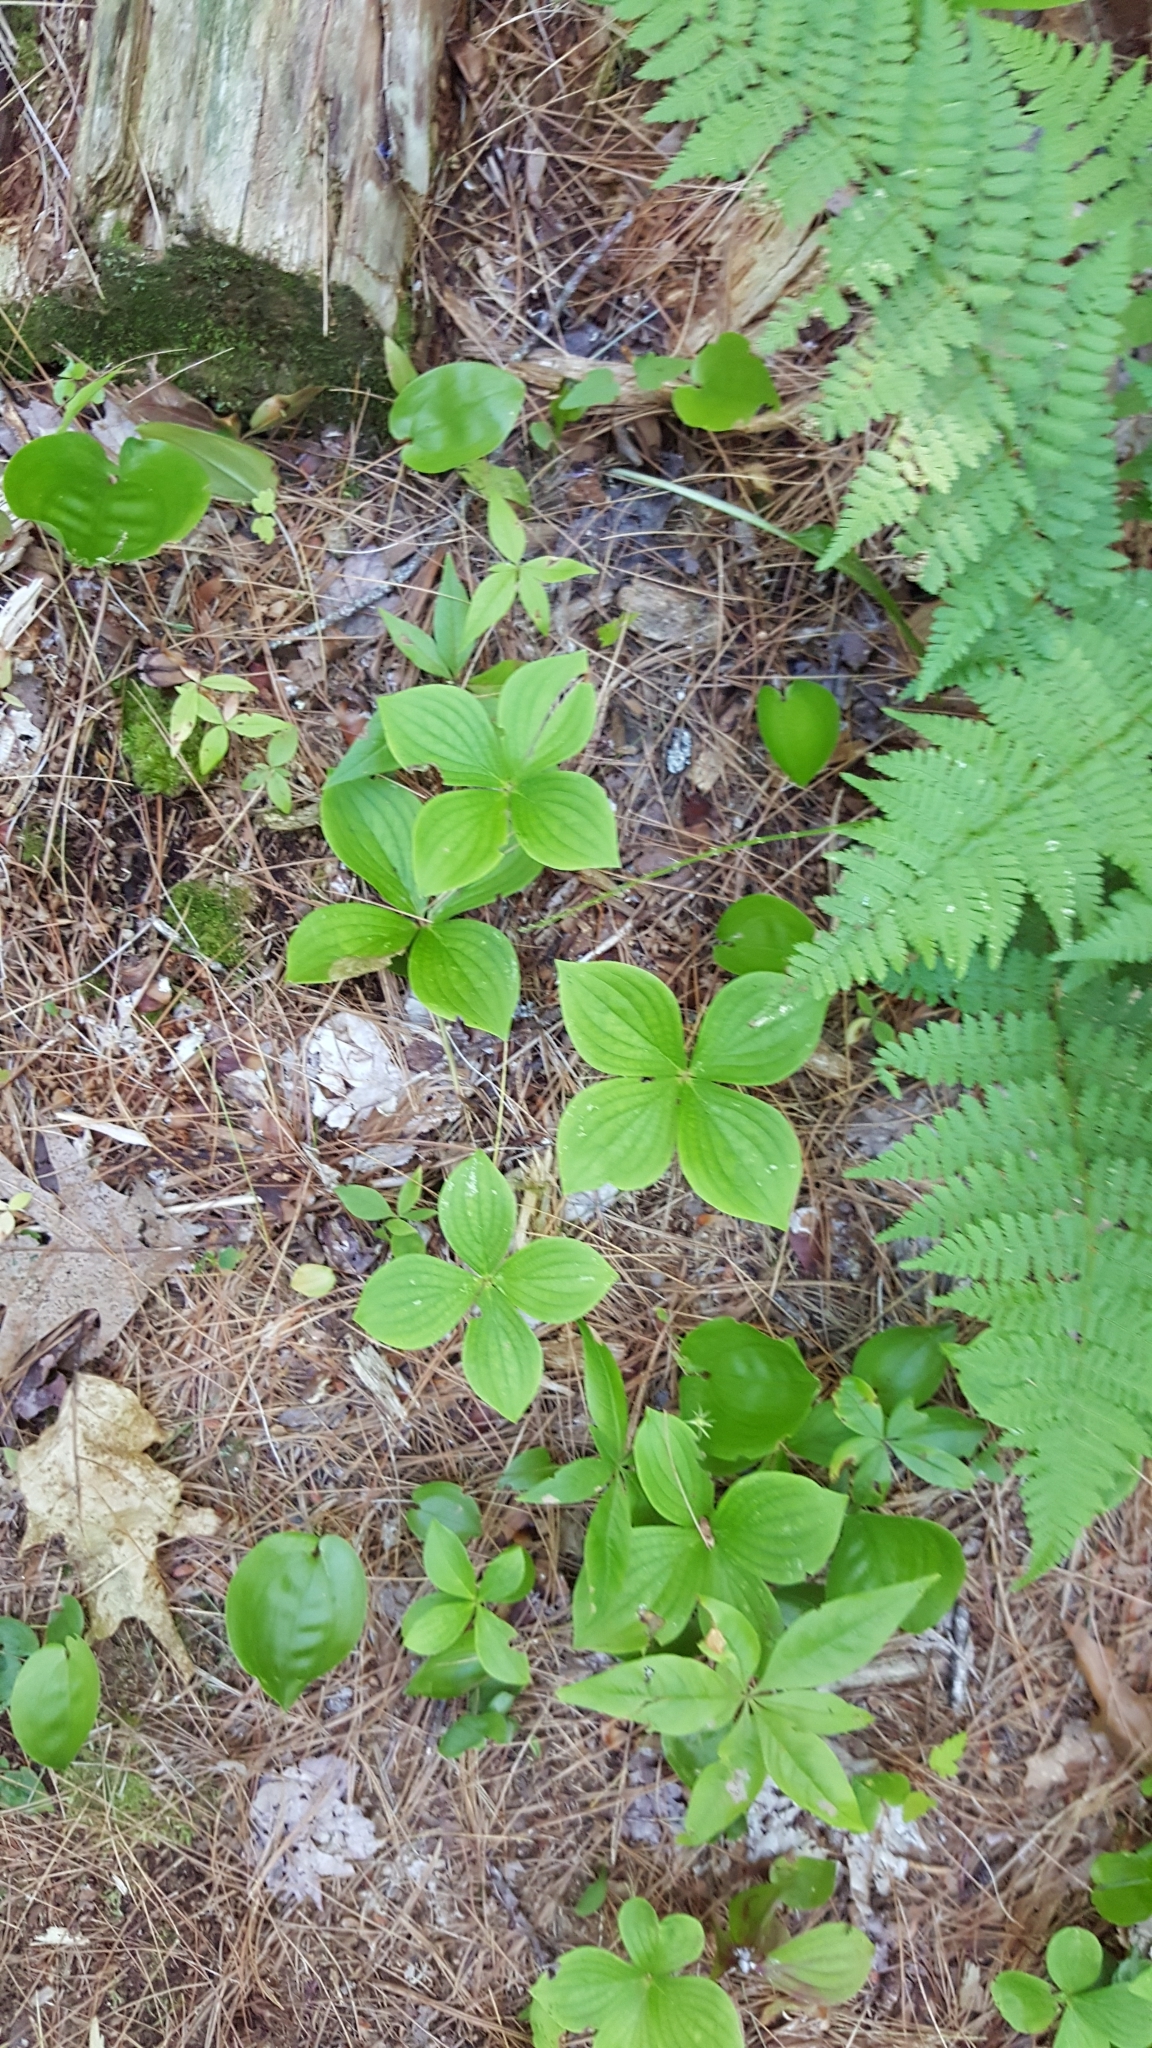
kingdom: Plantae
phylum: Tracheophyta
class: Magnoliopsida
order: Cornales
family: Cornaceae
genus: Cornus
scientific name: Cornus canadensis
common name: Creeping dogwood
